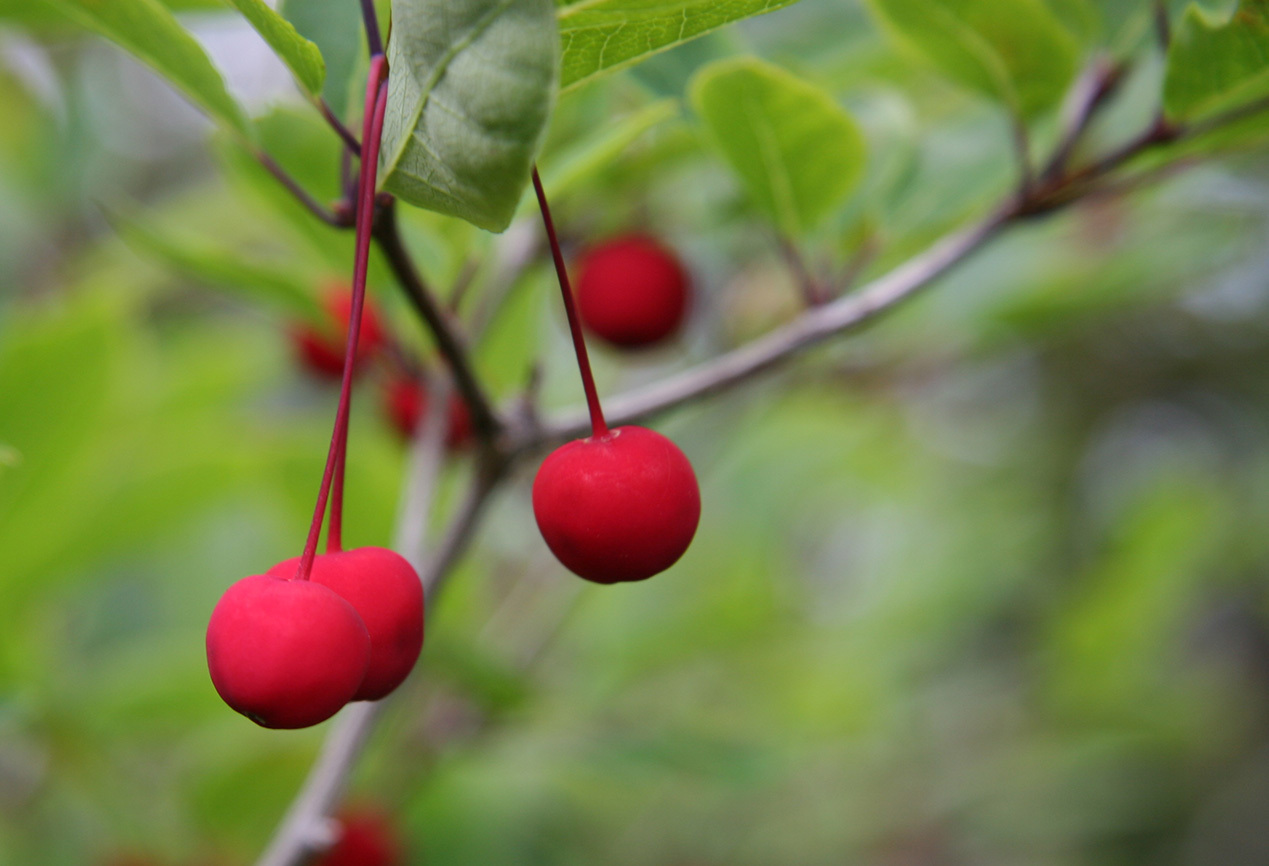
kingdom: Plantae
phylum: Tracheophyta
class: Magnoliopsida
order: Aquifoliales
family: Aquifoliaceae
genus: Ilex
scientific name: Ilex mucronata
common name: Catberry
